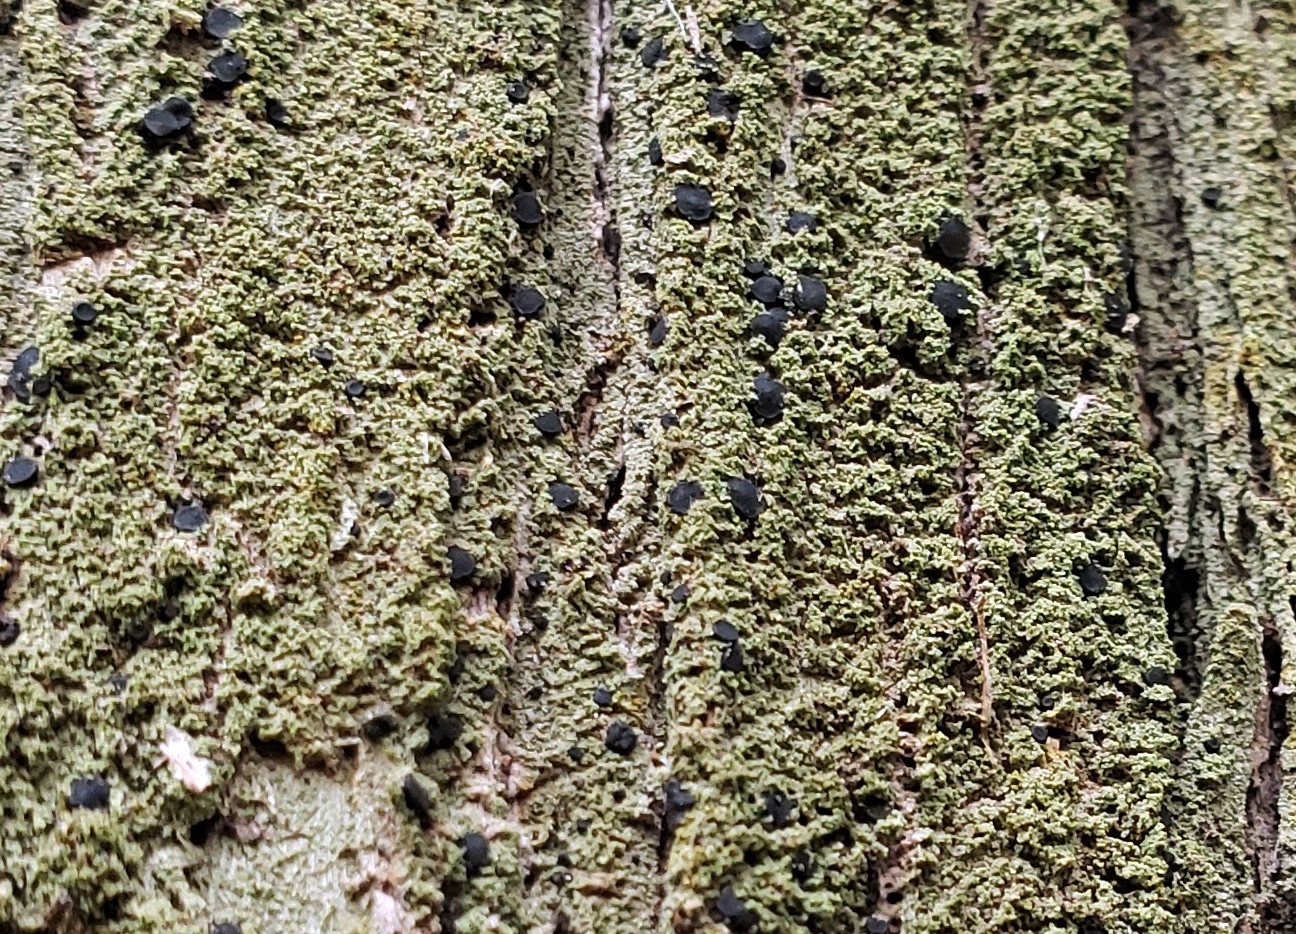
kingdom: Fungi
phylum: Ascomycota
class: Lecanoromycetes
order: Lecanorales
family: Ramalinaceae
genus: Bacidia
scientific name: Bacidia schweinitzii
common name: Surprise lichen
